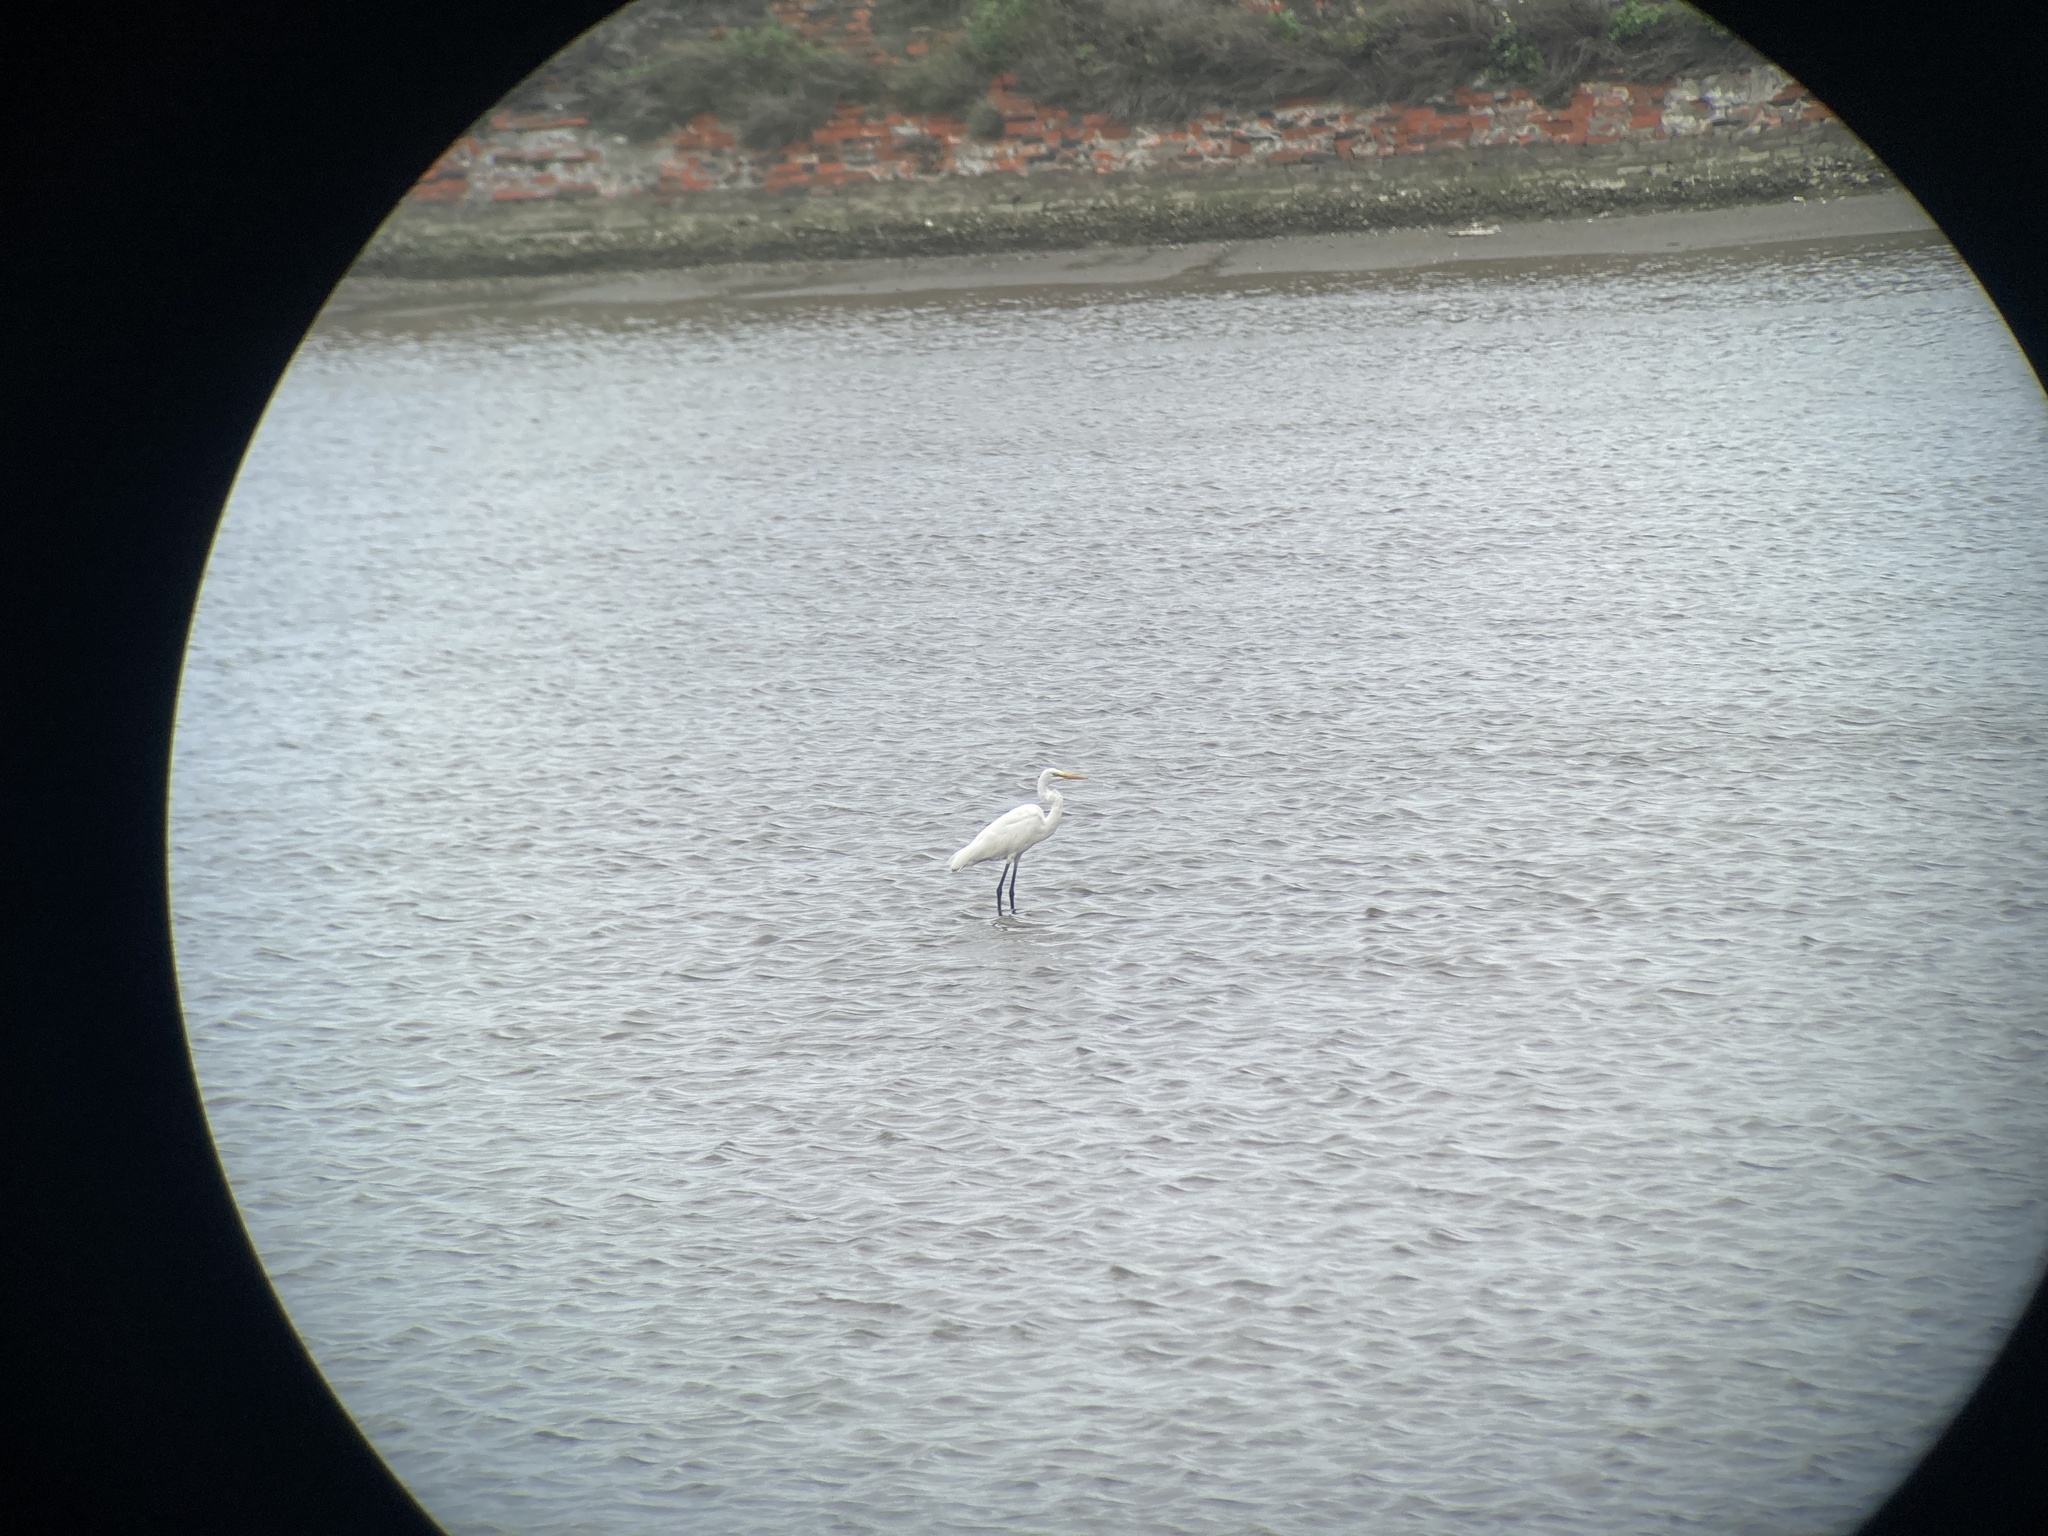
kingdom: Animalia
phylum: Chordata
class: Aves
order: Pelecaniformes
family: Ardeidae
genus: Ardea
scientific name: Ardea alba
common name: Great egret
